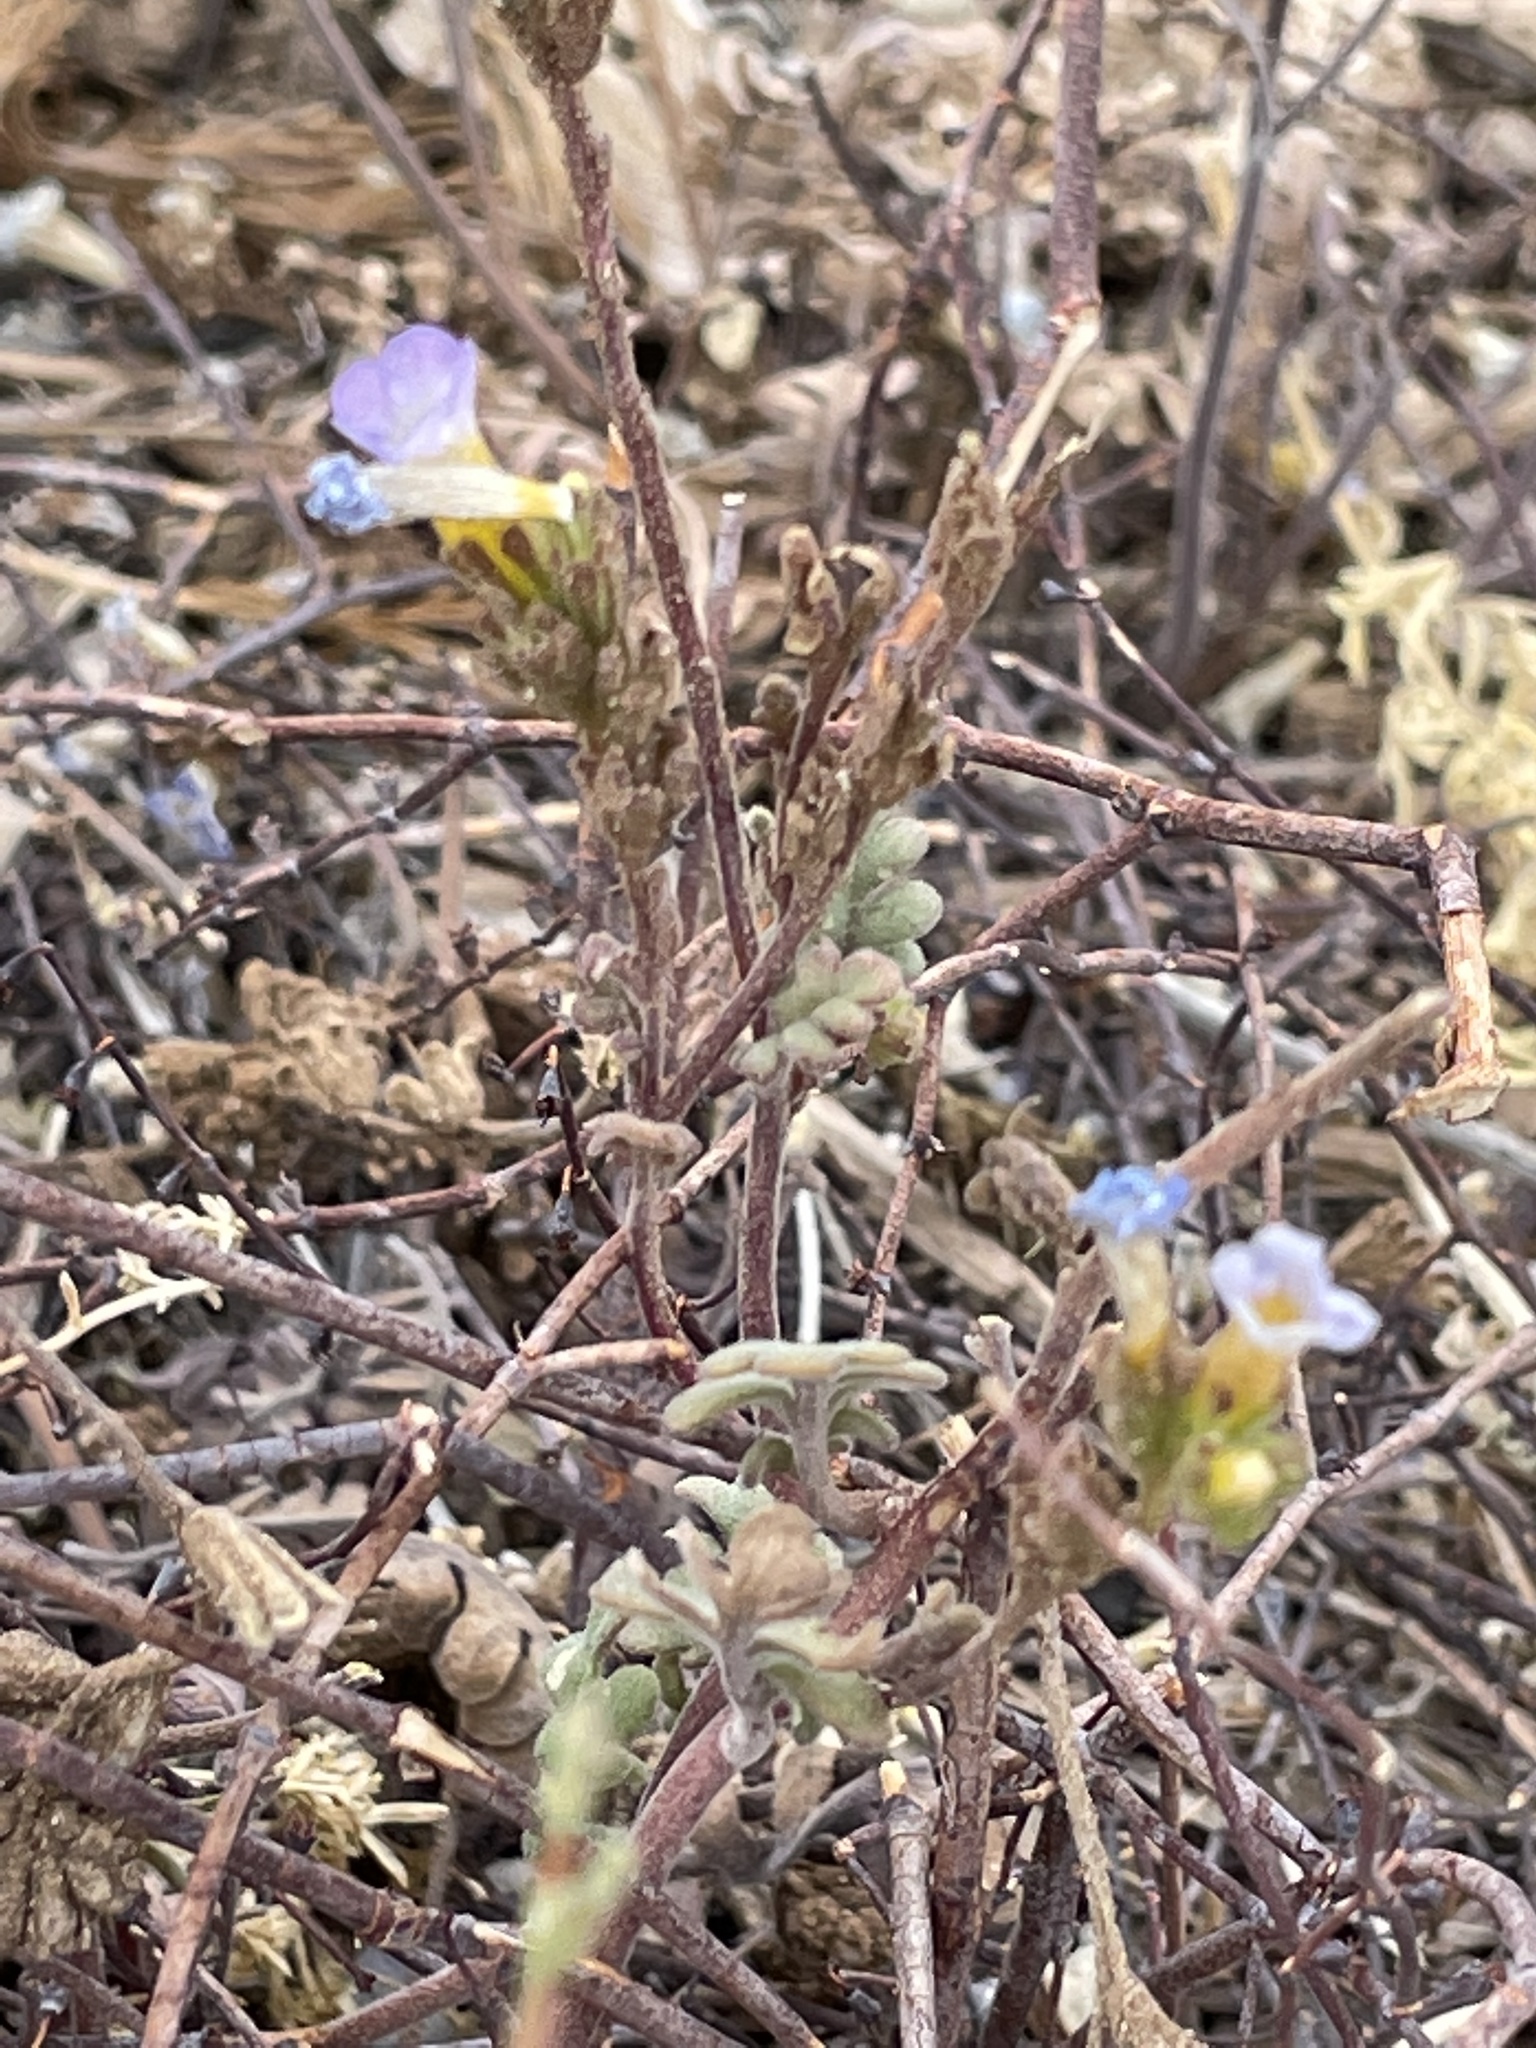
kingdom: Plantae
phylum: Tracheophyta
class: Magnoliopsida
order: Boraginales
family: Hydrophyllaceae
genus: Phacelia
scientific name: Phacelia fremontii
